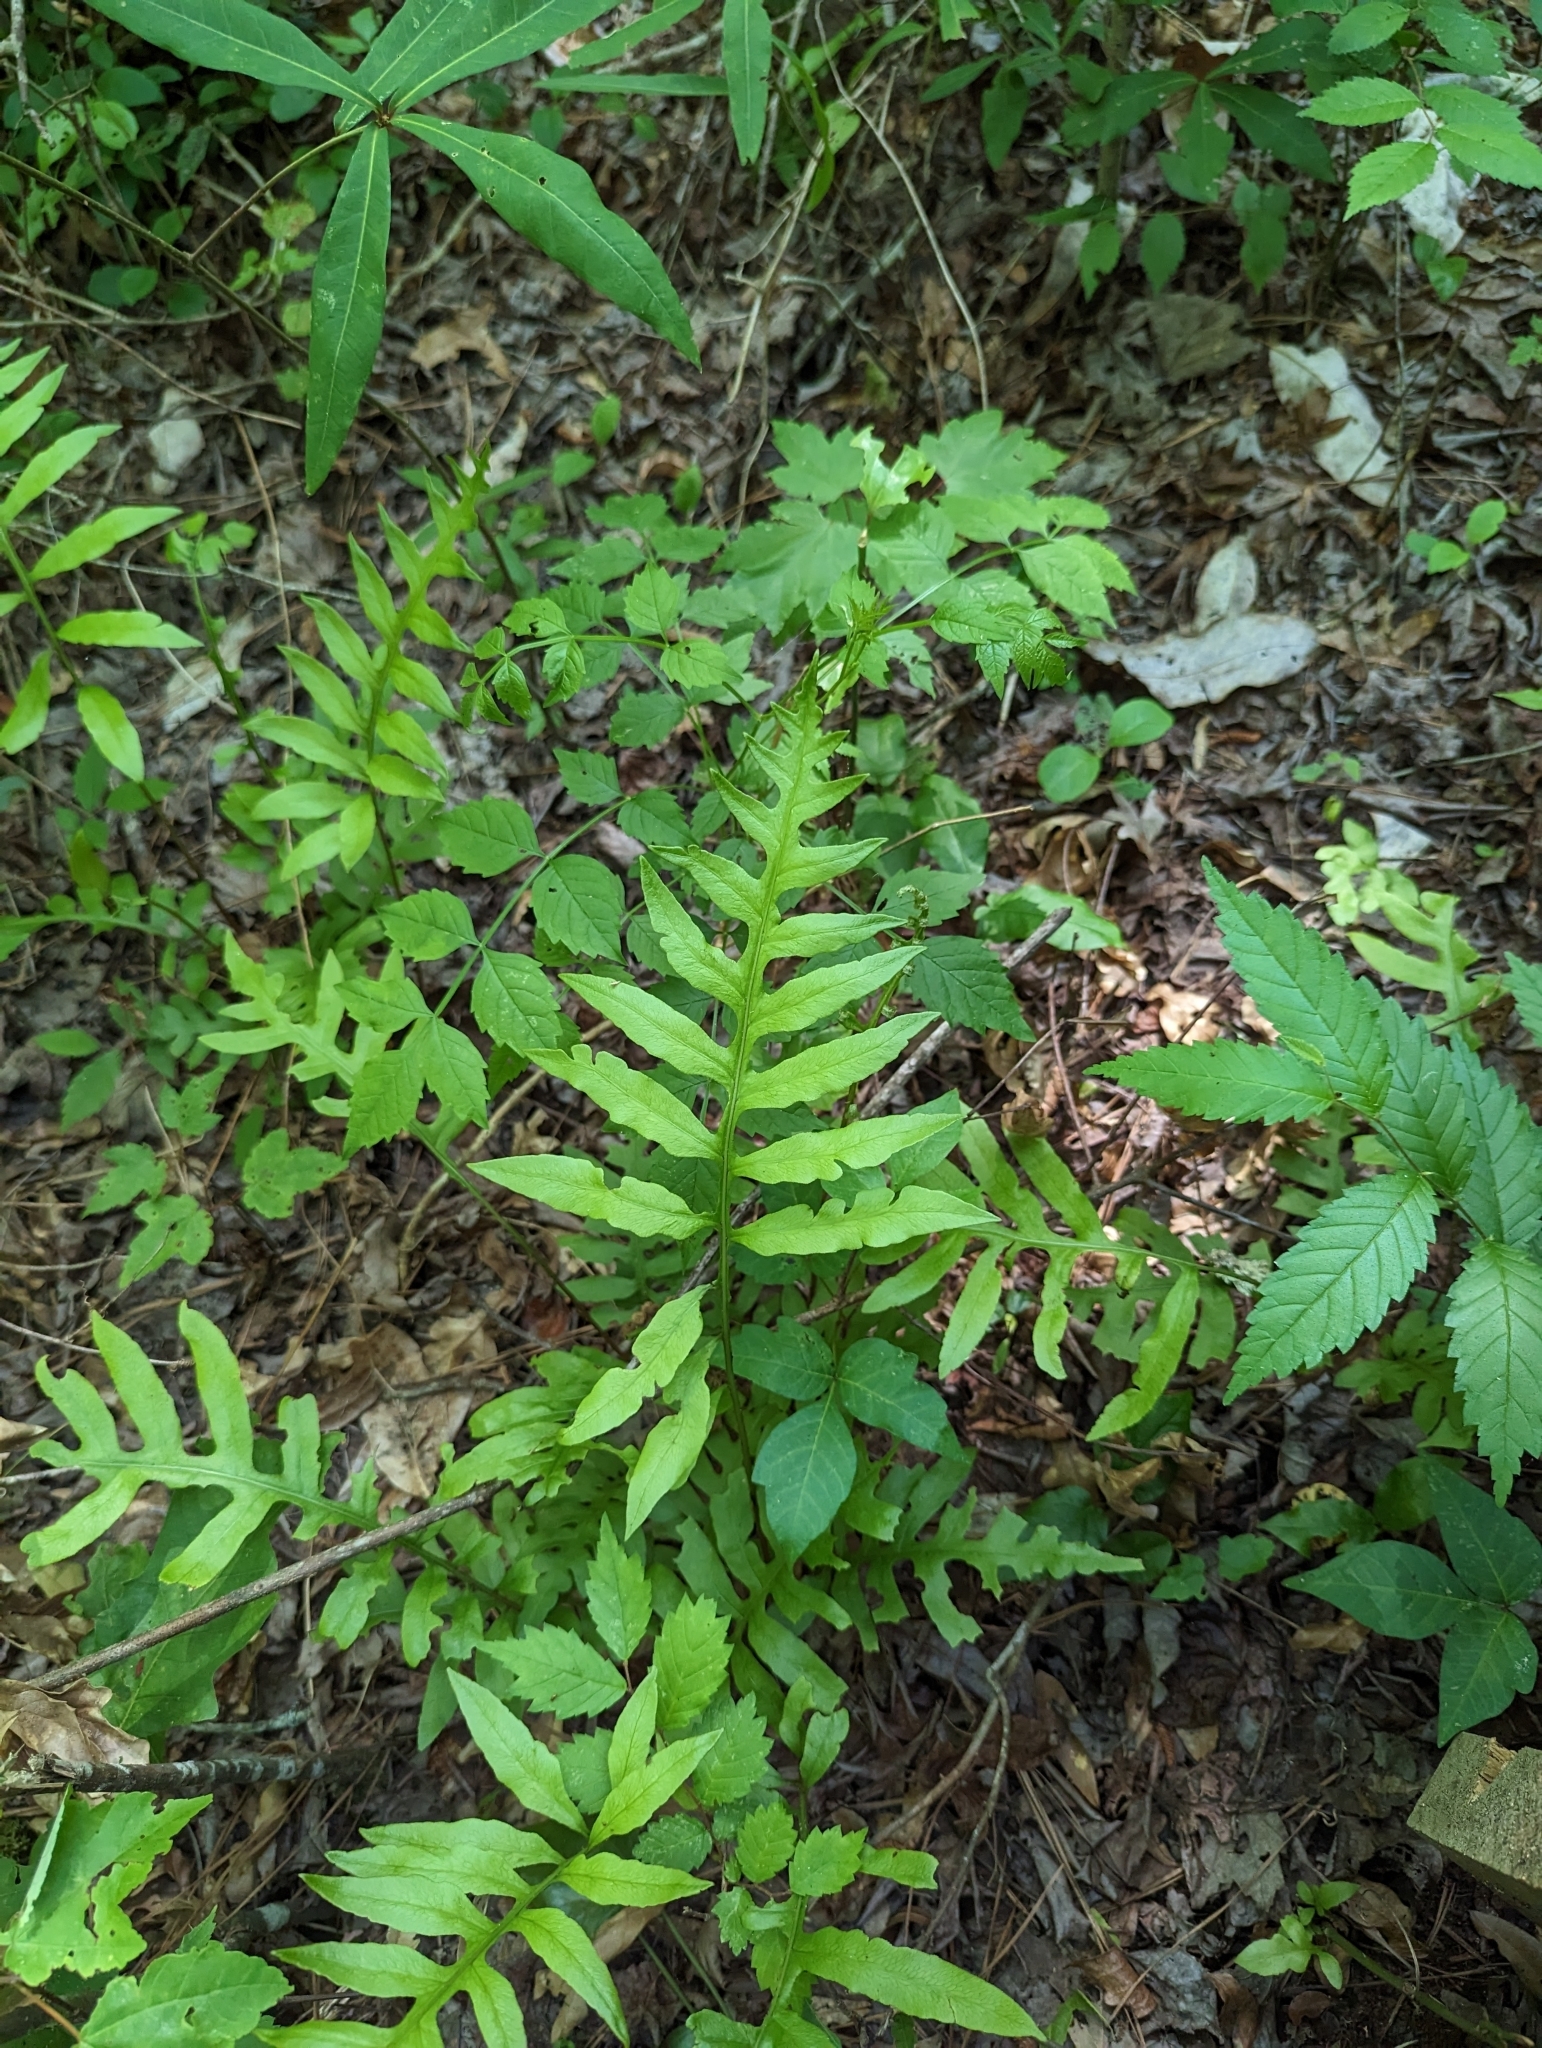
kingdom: Plantae
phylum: Tracheophyta
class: Polypodiopsida
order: Polypodiales
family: Blechnaceae
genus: Lorinseria
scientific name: Lorinseria areolata
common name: Dwarf chain fern
